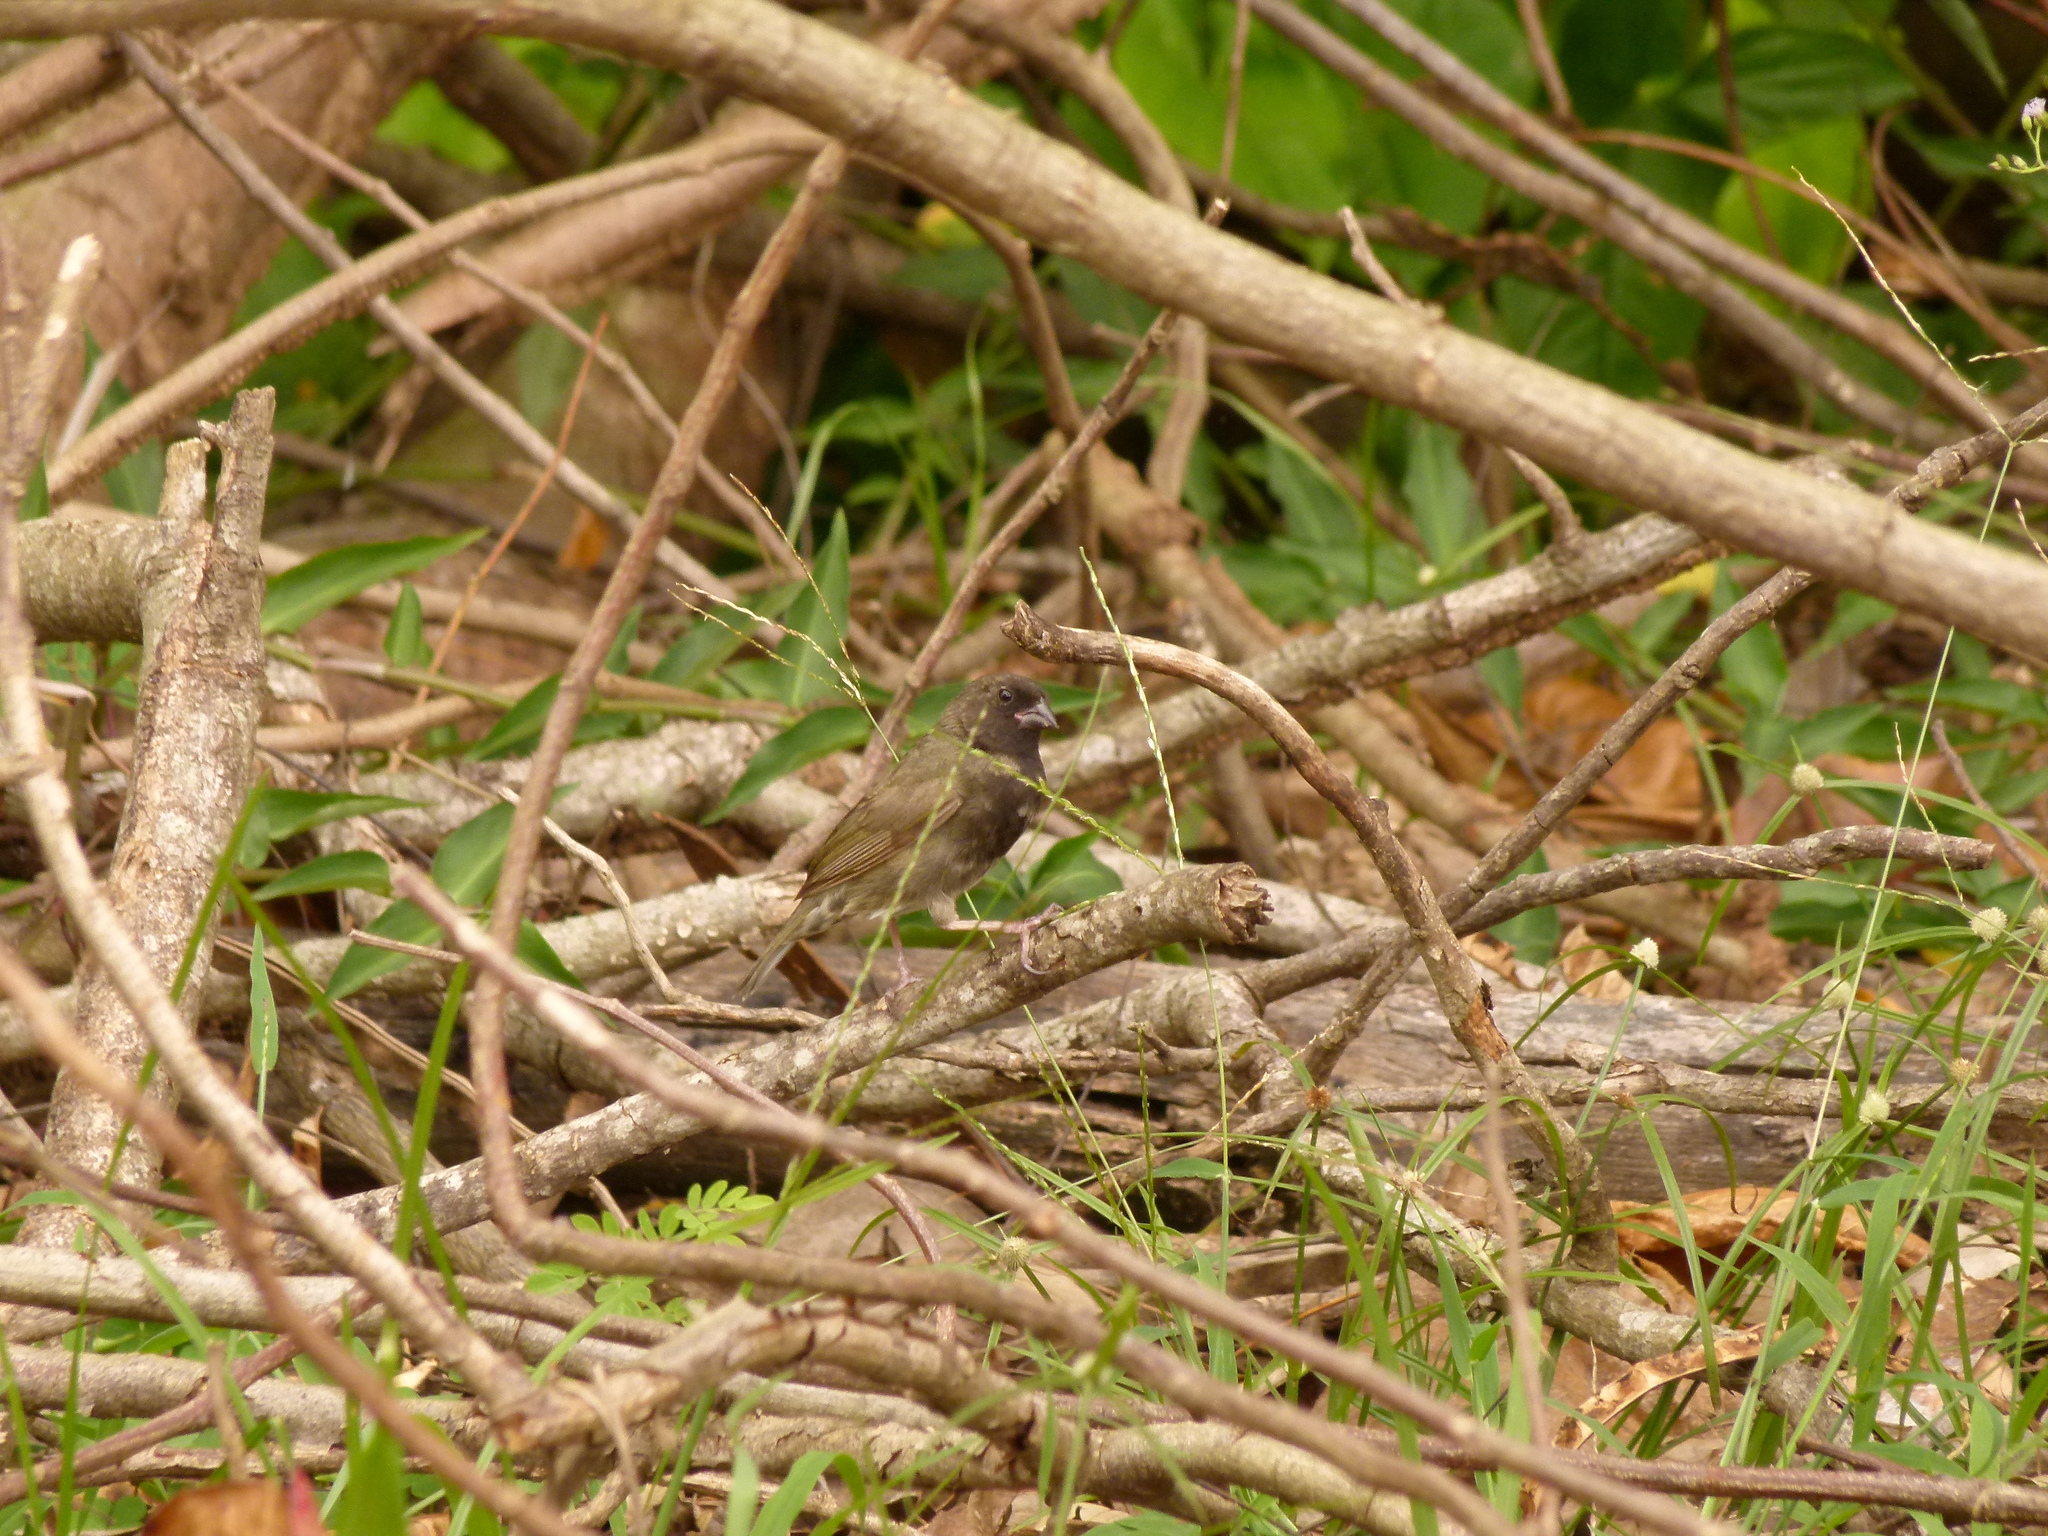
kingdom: Animalia
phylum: Chordata
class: Aves
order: Passeriformes
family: Thraupidae
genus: Melanospiza
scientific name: Melanospiza bicolor
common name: Black-faced grassquit
